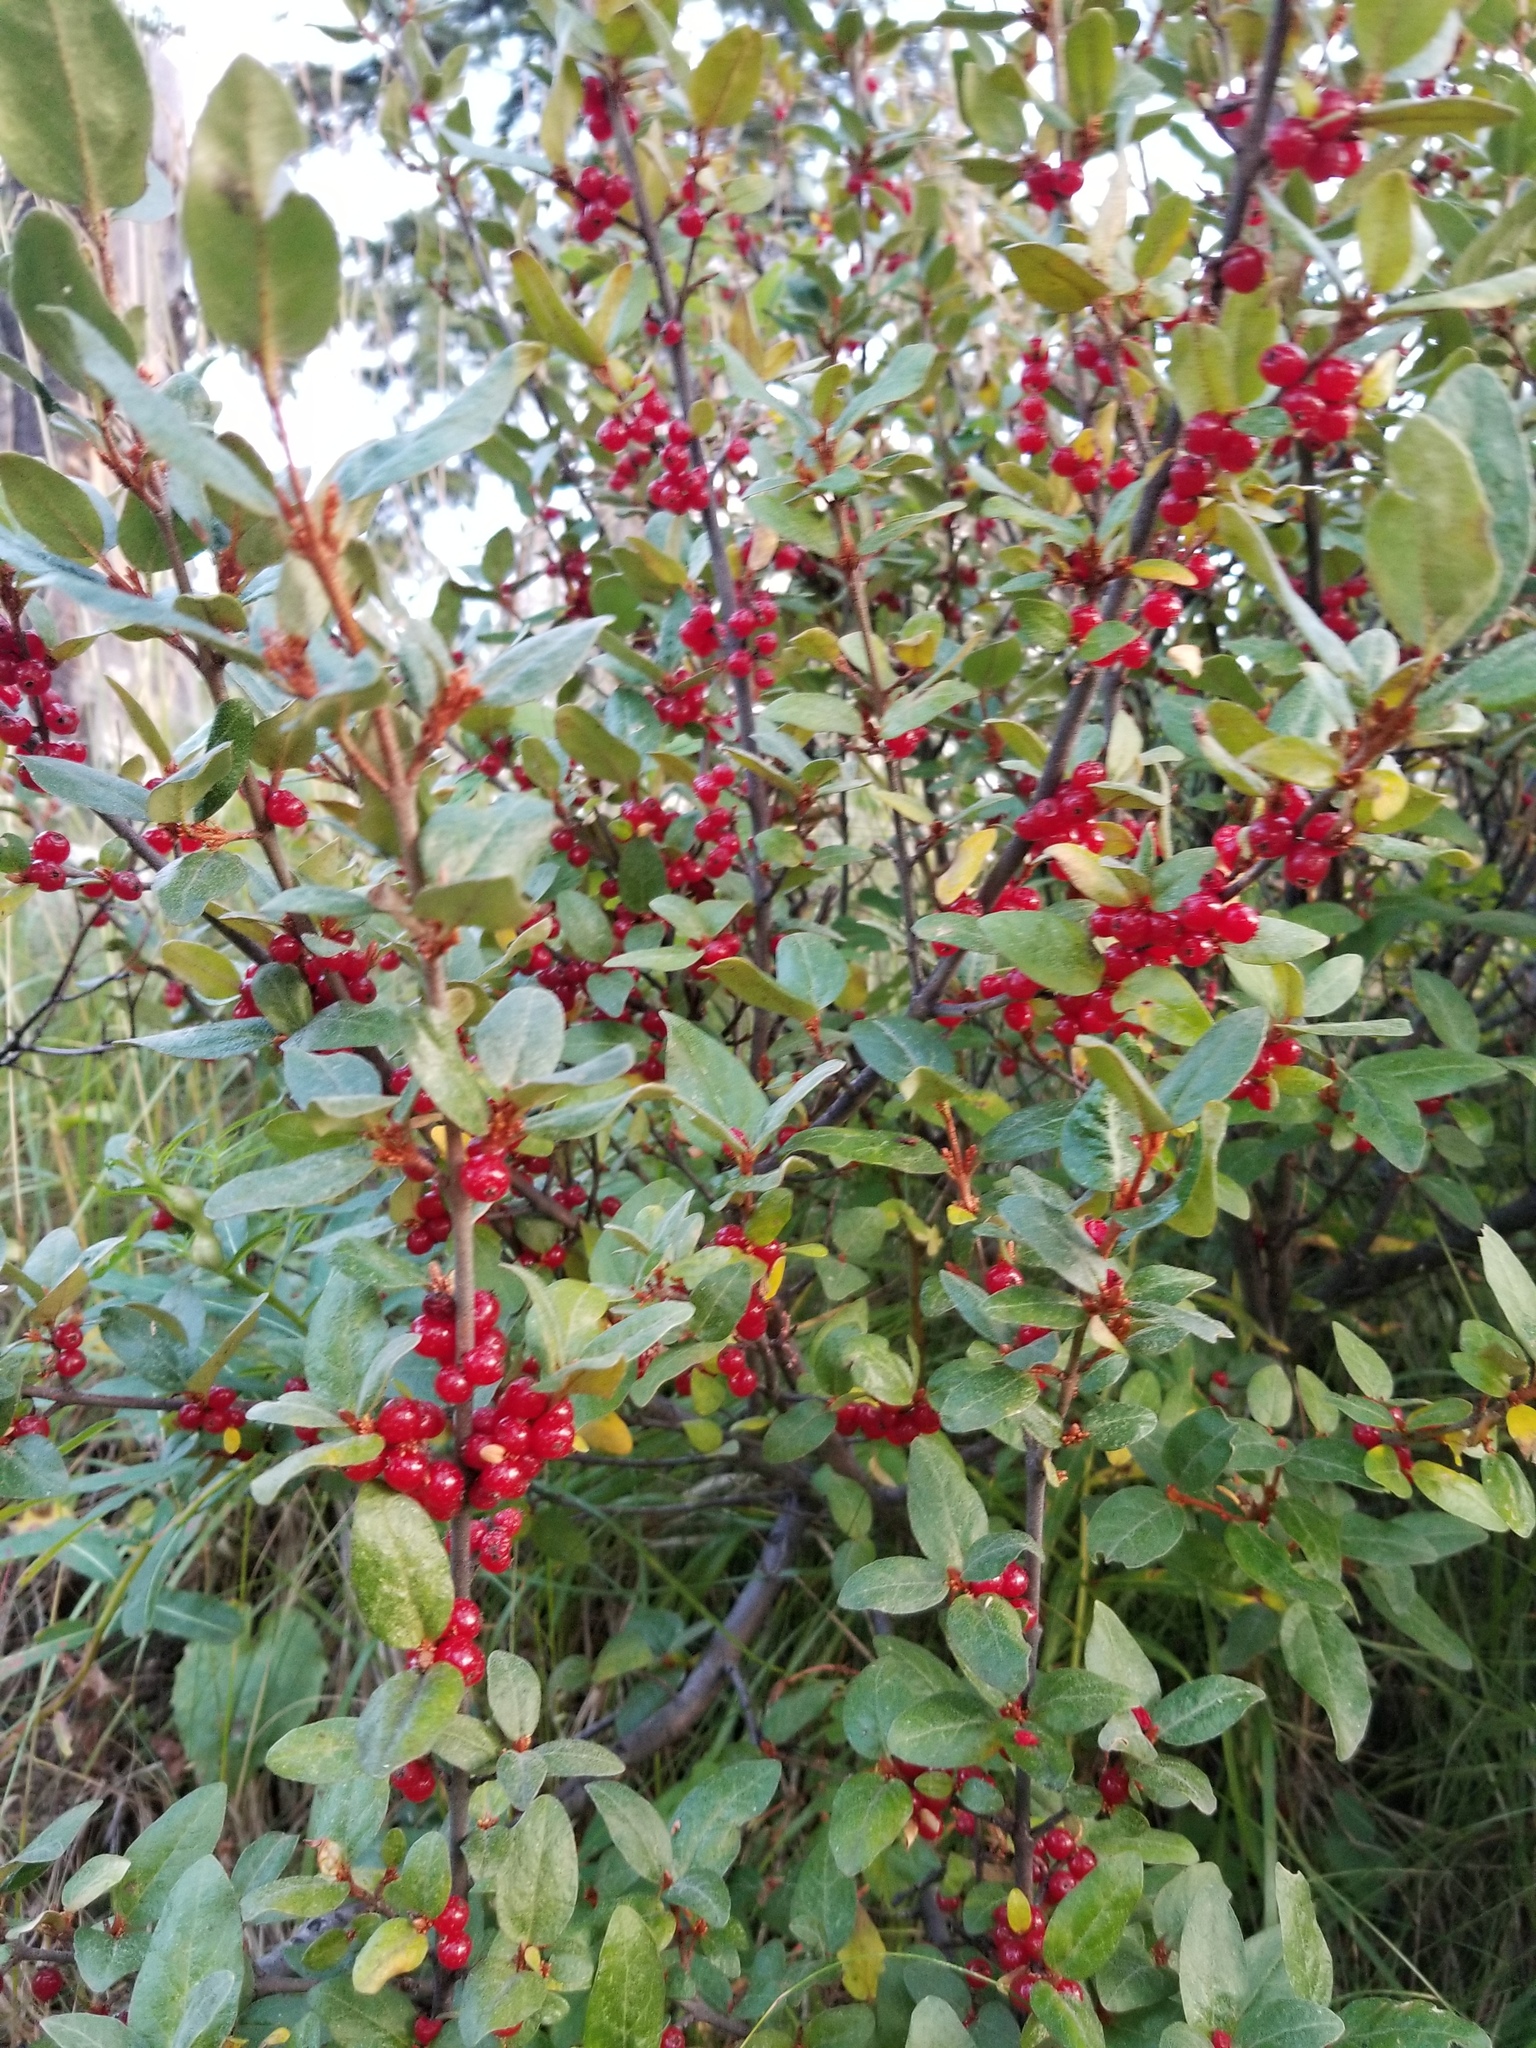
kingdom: Plantae
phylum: Tracheophyta
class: Magnoliopsida
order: Rosales
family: Elaeagnaceae
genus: Shepherdia
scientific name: Shepherdia canadensis
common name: Soapberry
